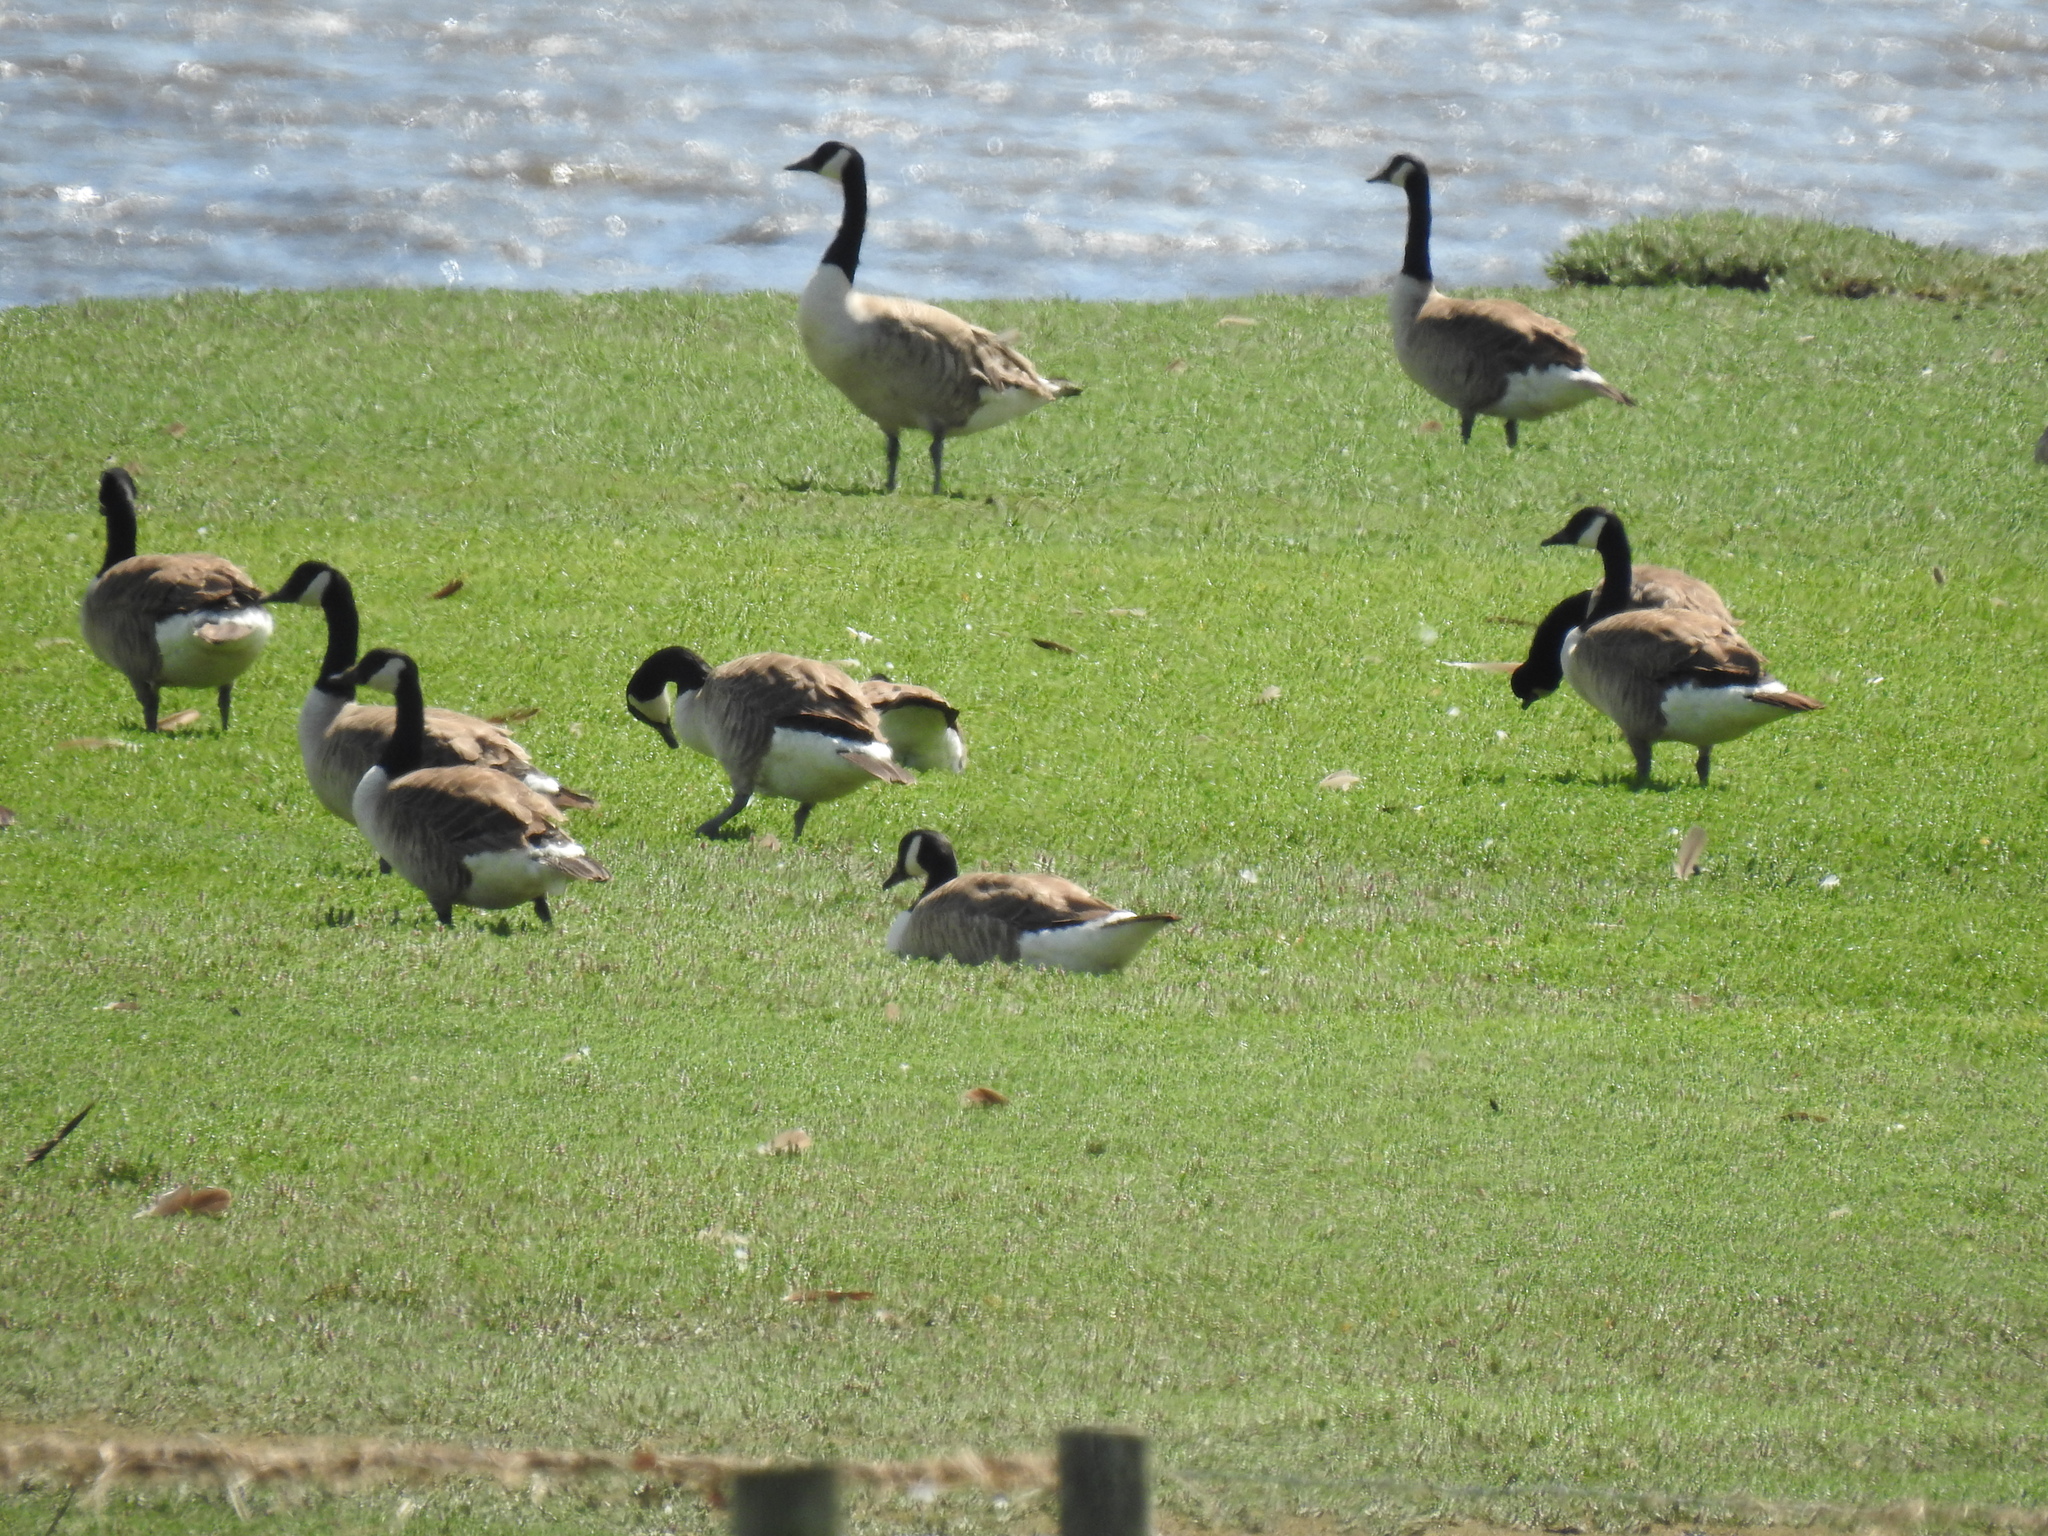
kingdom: Animalia
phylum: Chordata
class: Aves
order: Anseriformes
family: Anatidae
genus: Branta
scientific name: Branta canadensis
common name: Canada goose
